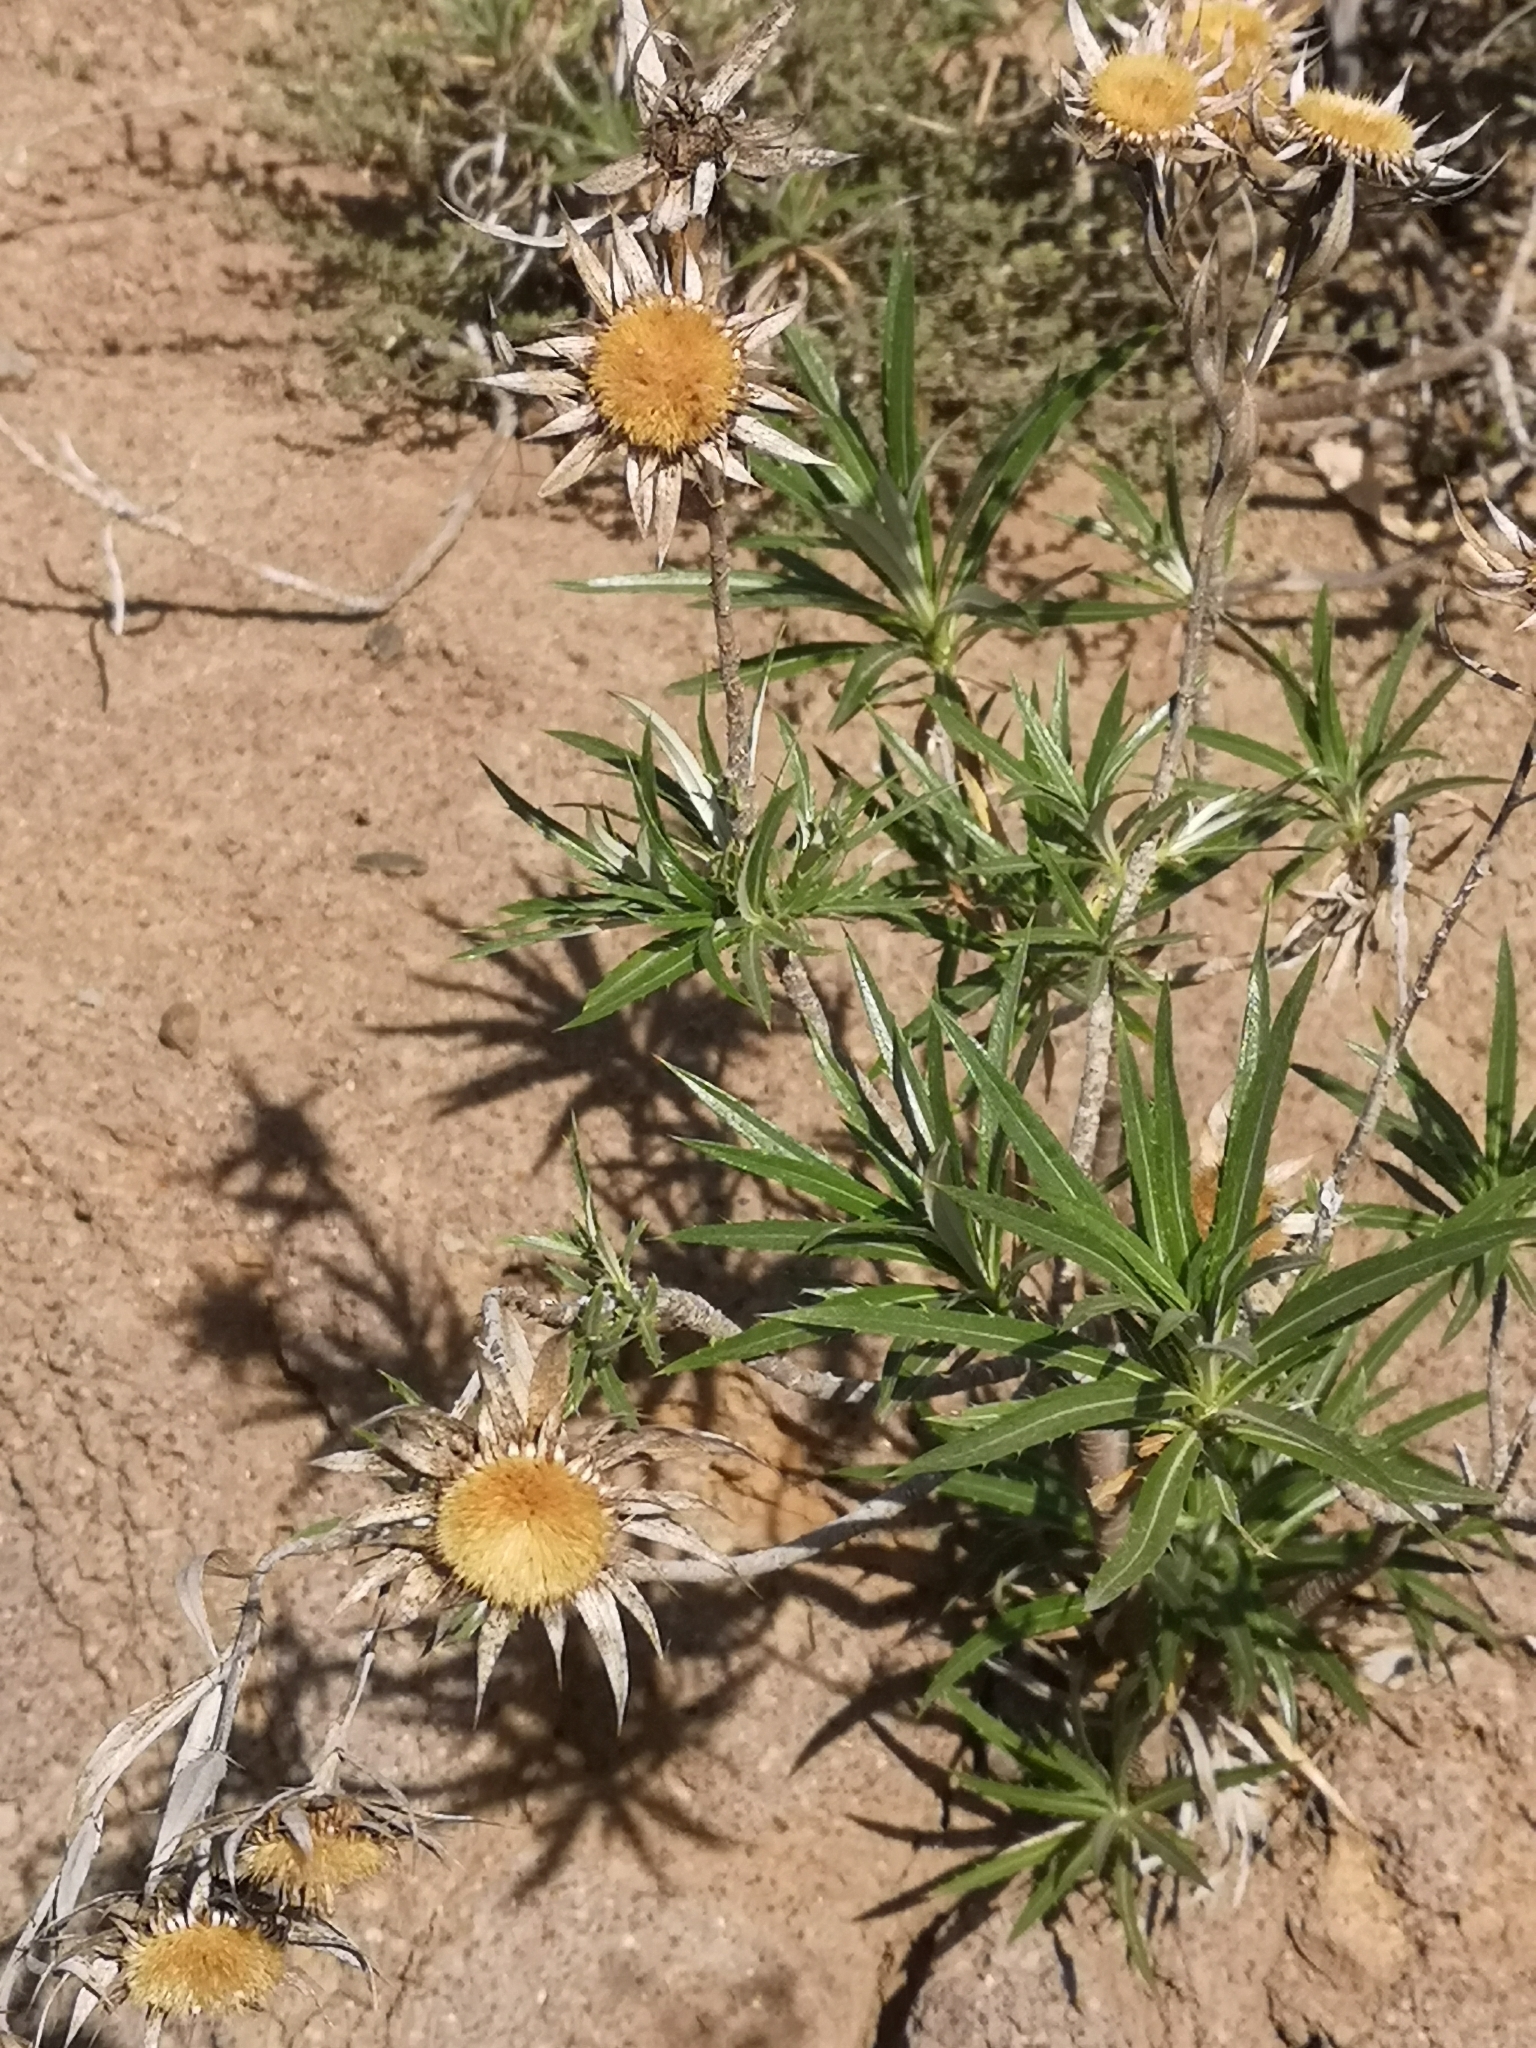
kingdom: Plantae
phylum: Tracheophyta
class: Magnoliopsida
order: Asterales
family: Asteraceae
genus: Carlina
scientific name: Carlina salicifolia
